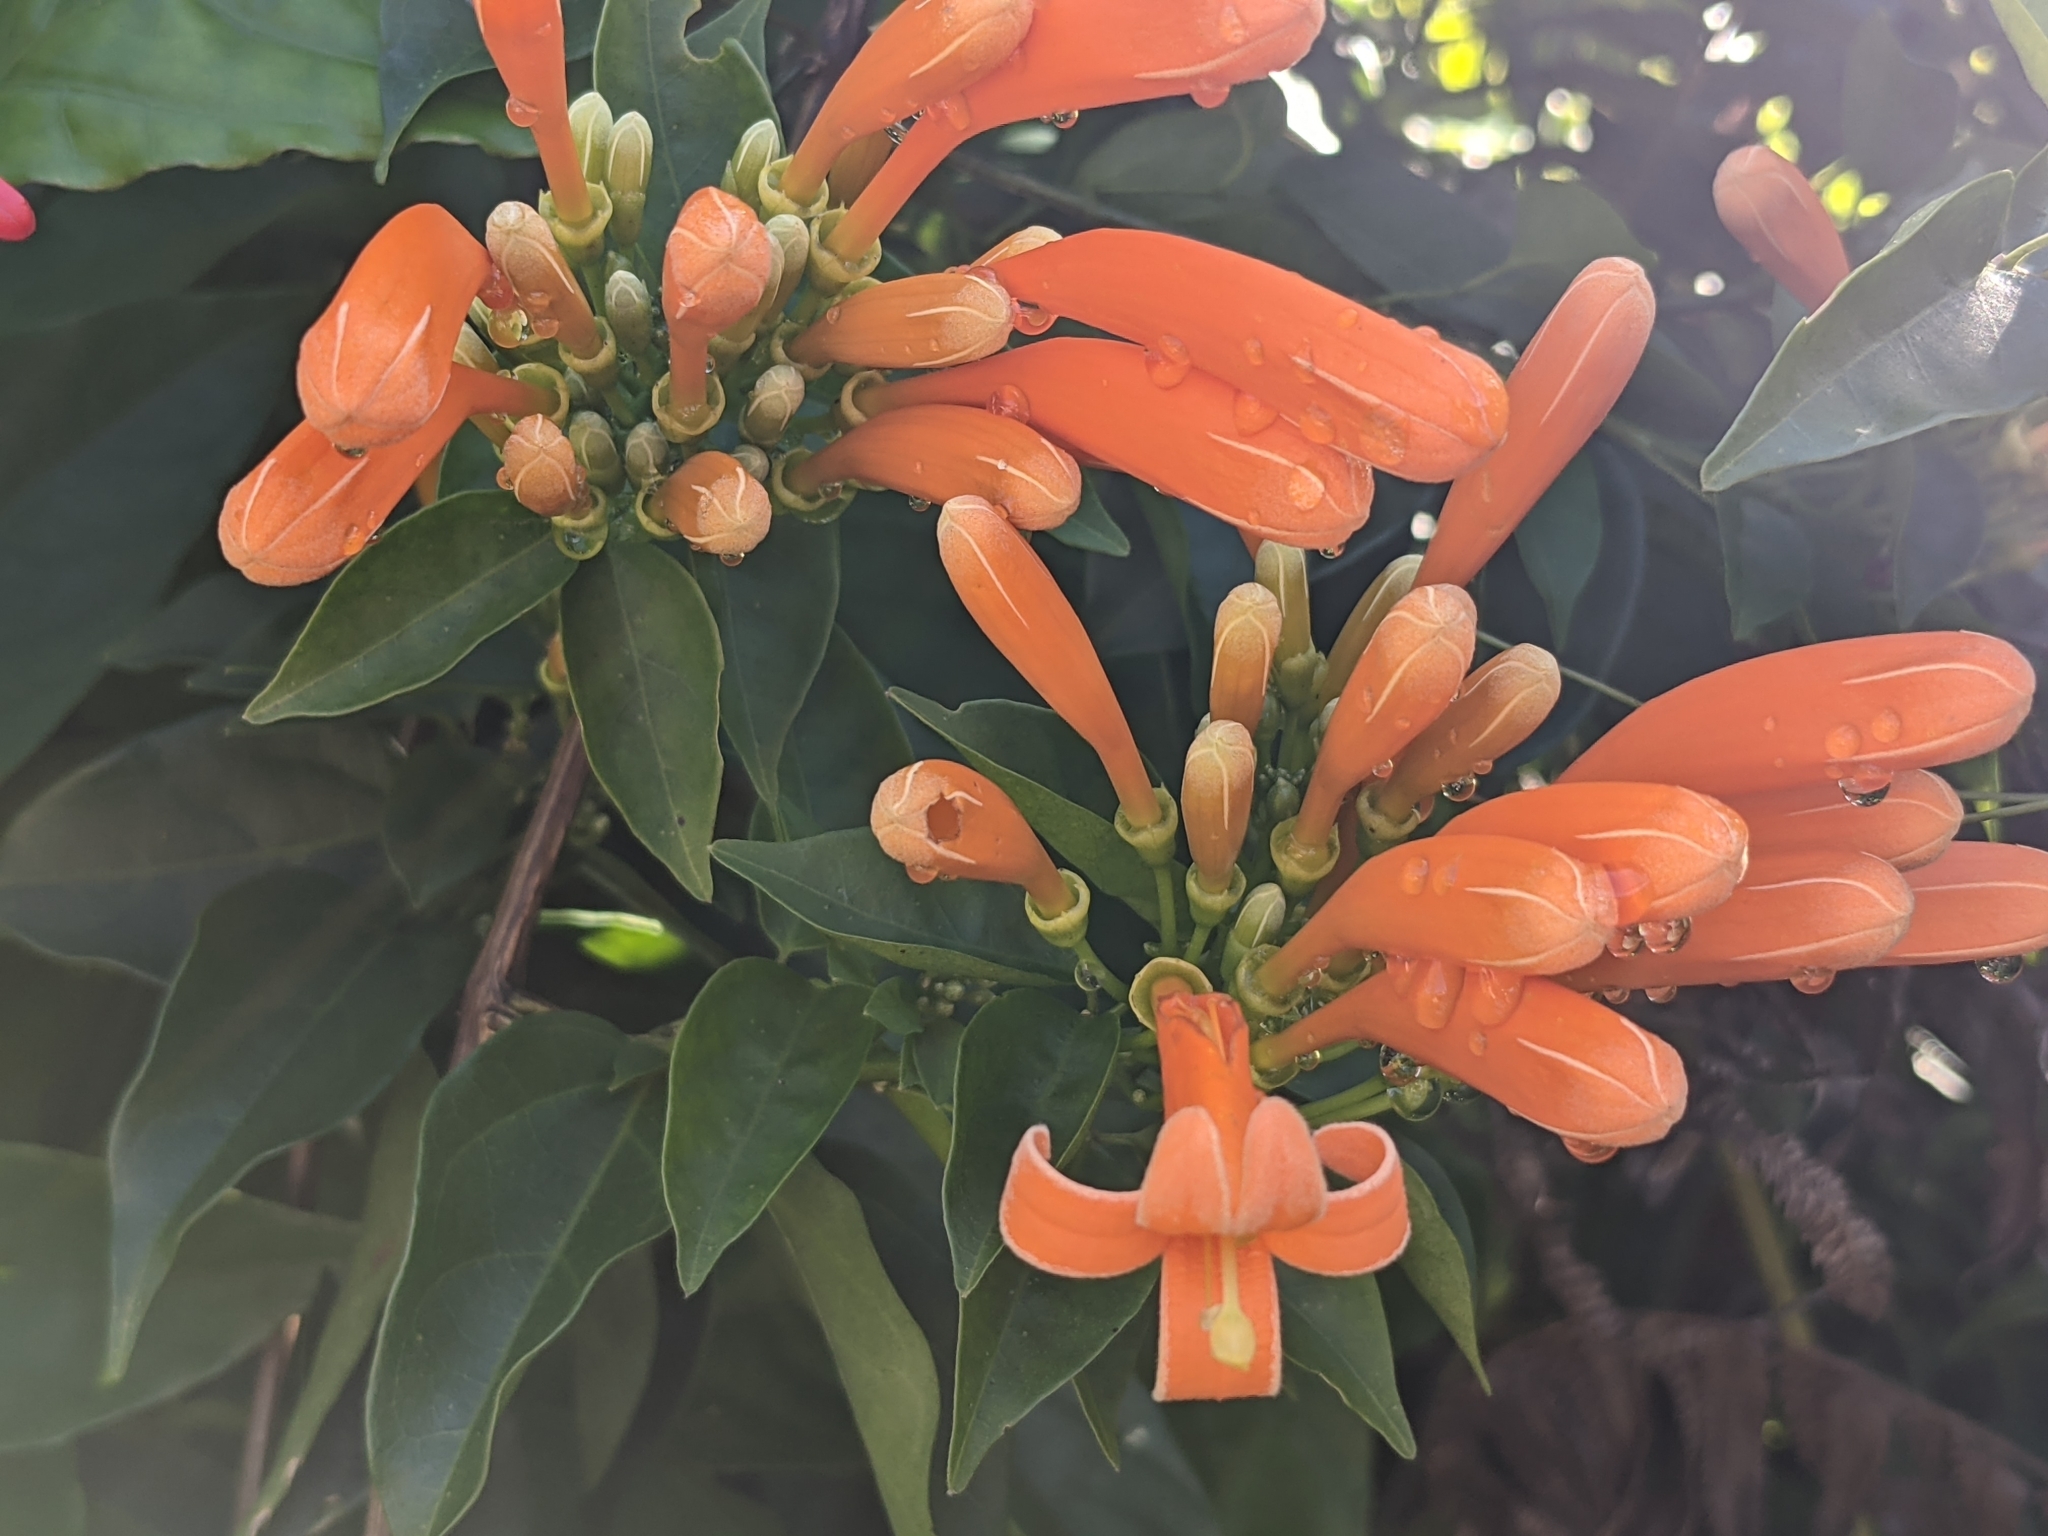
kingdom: Plantae
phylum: Tracheophyta
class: Magnoliopsida
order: Lamiales
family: Bignoniaceae
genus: Pyrostegia
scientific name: Pyrostegia venusta
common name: Flamevine
